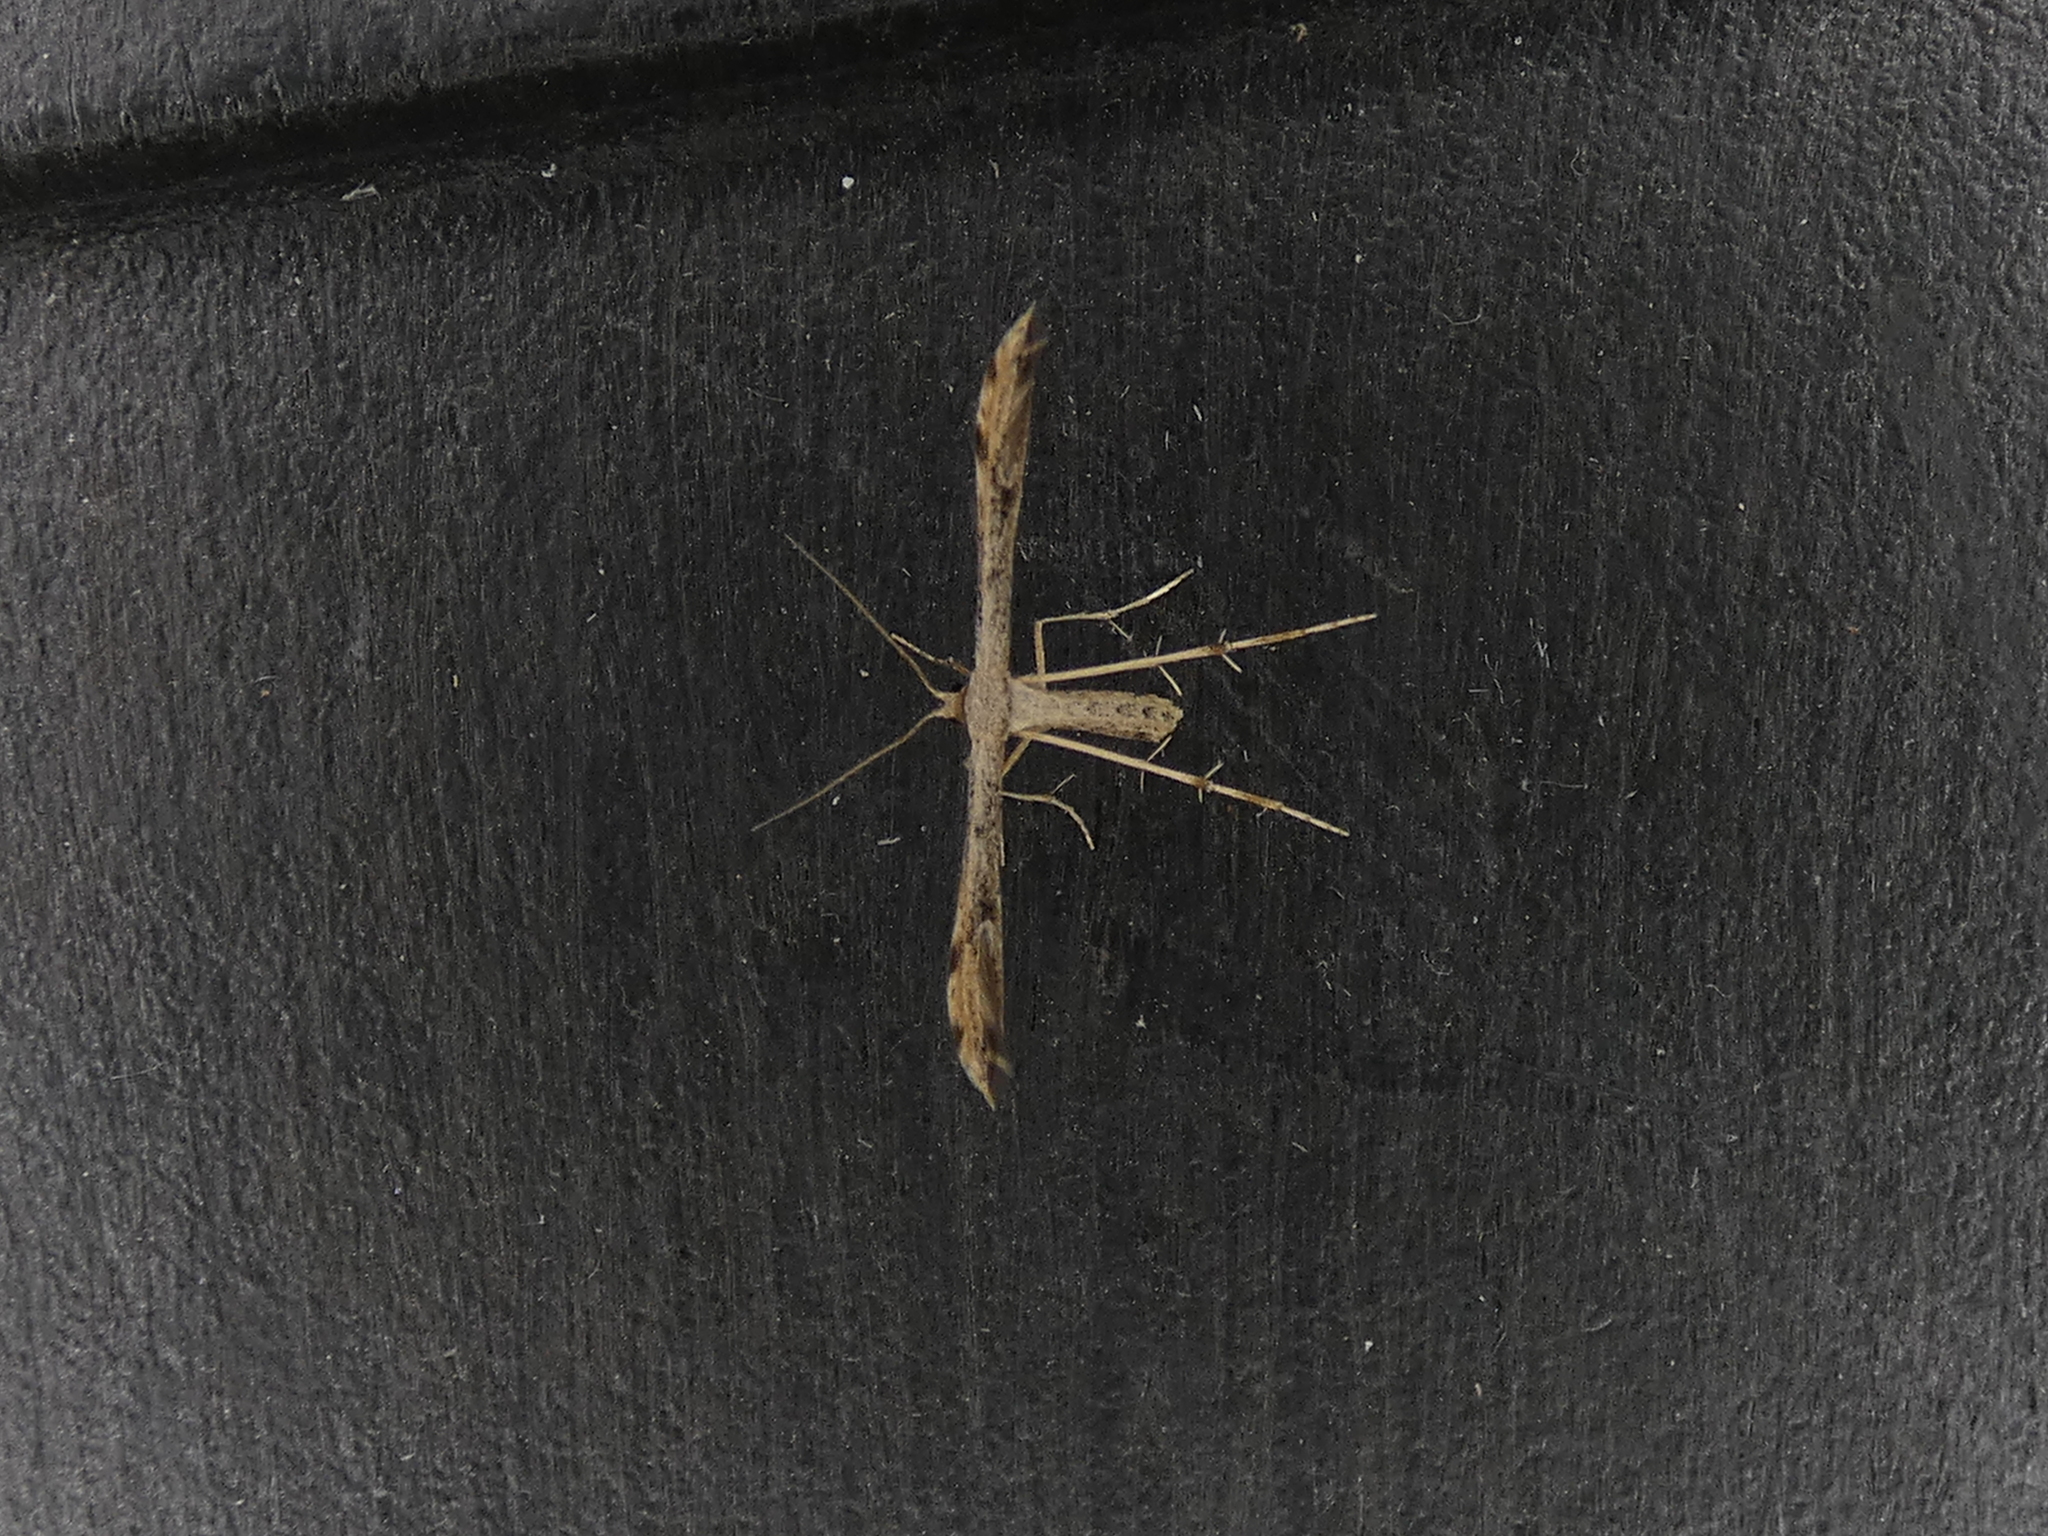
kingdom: Animalia
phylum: Arthropoda
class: Insecta
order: Lepidoptera
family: Pterophoridae
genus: Adaina
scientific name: Adaina ambrosiae
